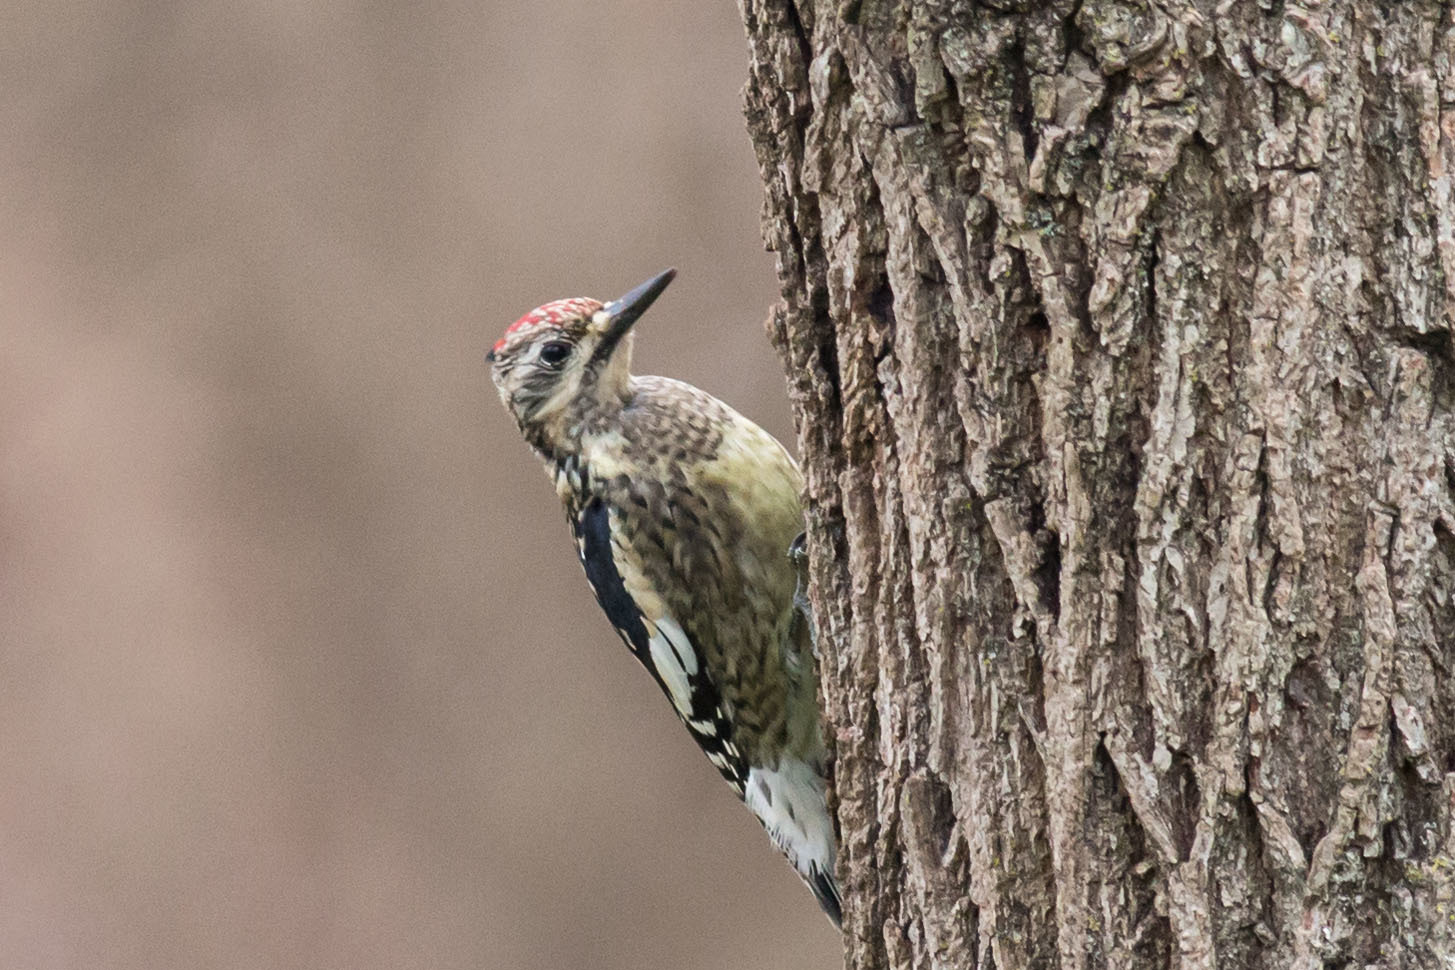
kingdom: Animalia
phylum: Chordata
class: Aves
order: Piciformes
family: Picidae
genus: Sphyrapicus
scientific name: Sphyrapicus varius
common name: Yellow-bellied sapsucker
